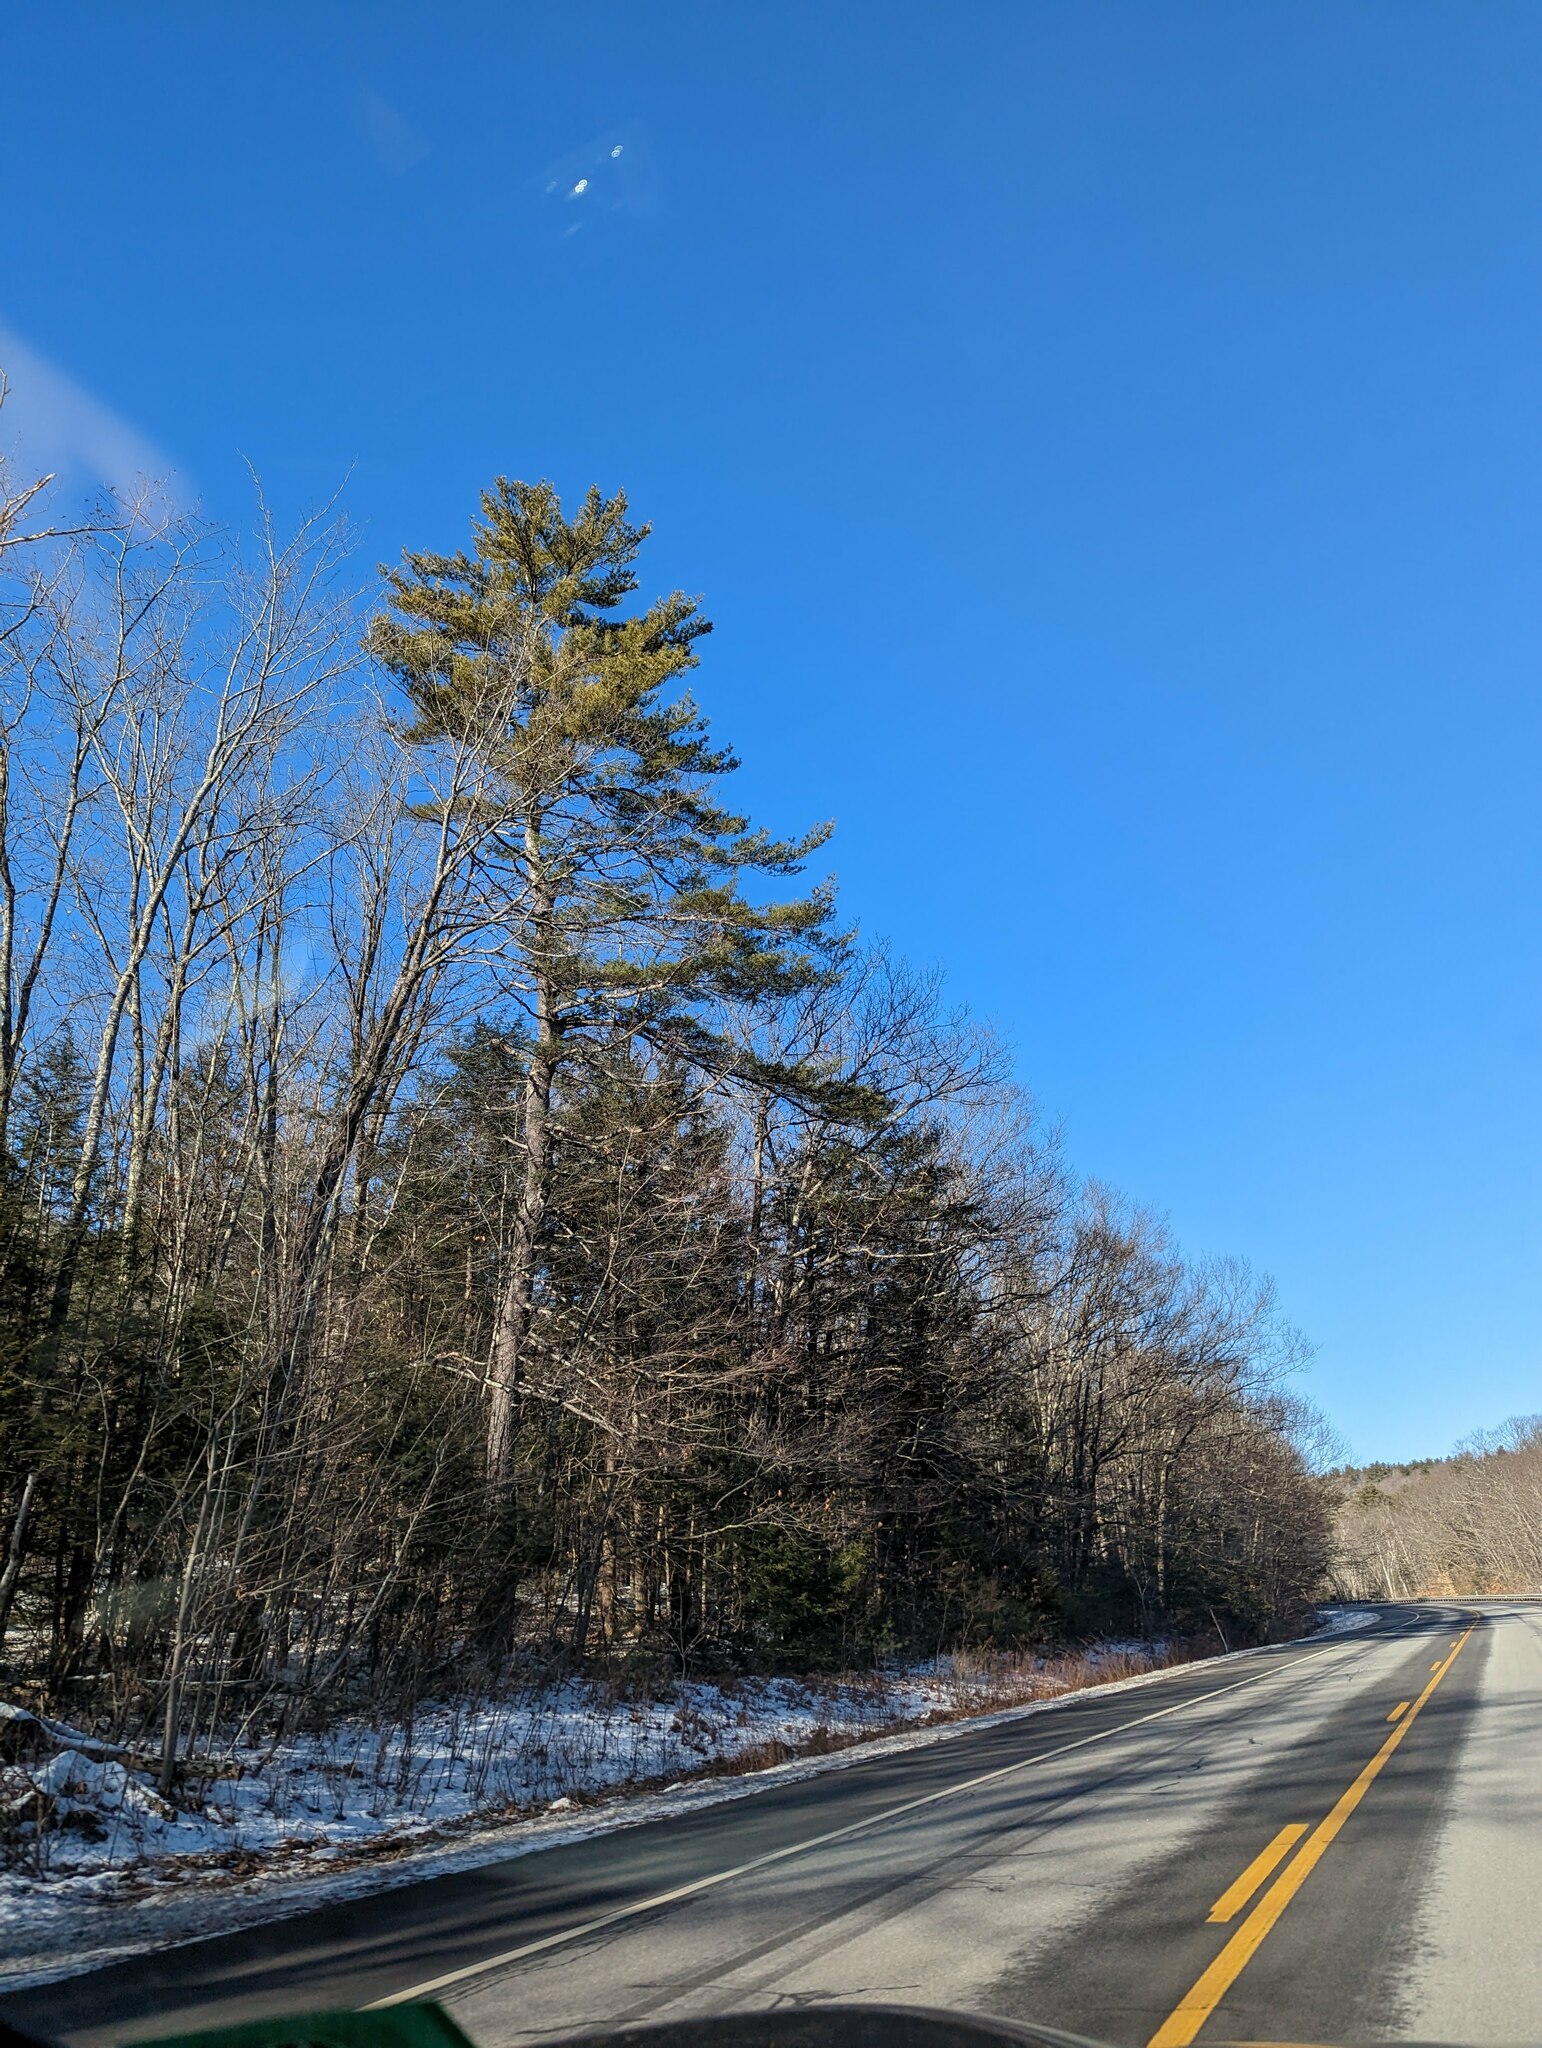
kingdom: Plantae
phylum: Tracheophyta
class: Pinopsida
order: Pinales
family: Pinaceae
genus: Pinus
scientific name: Pinus strobus
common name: Weymouth pine
